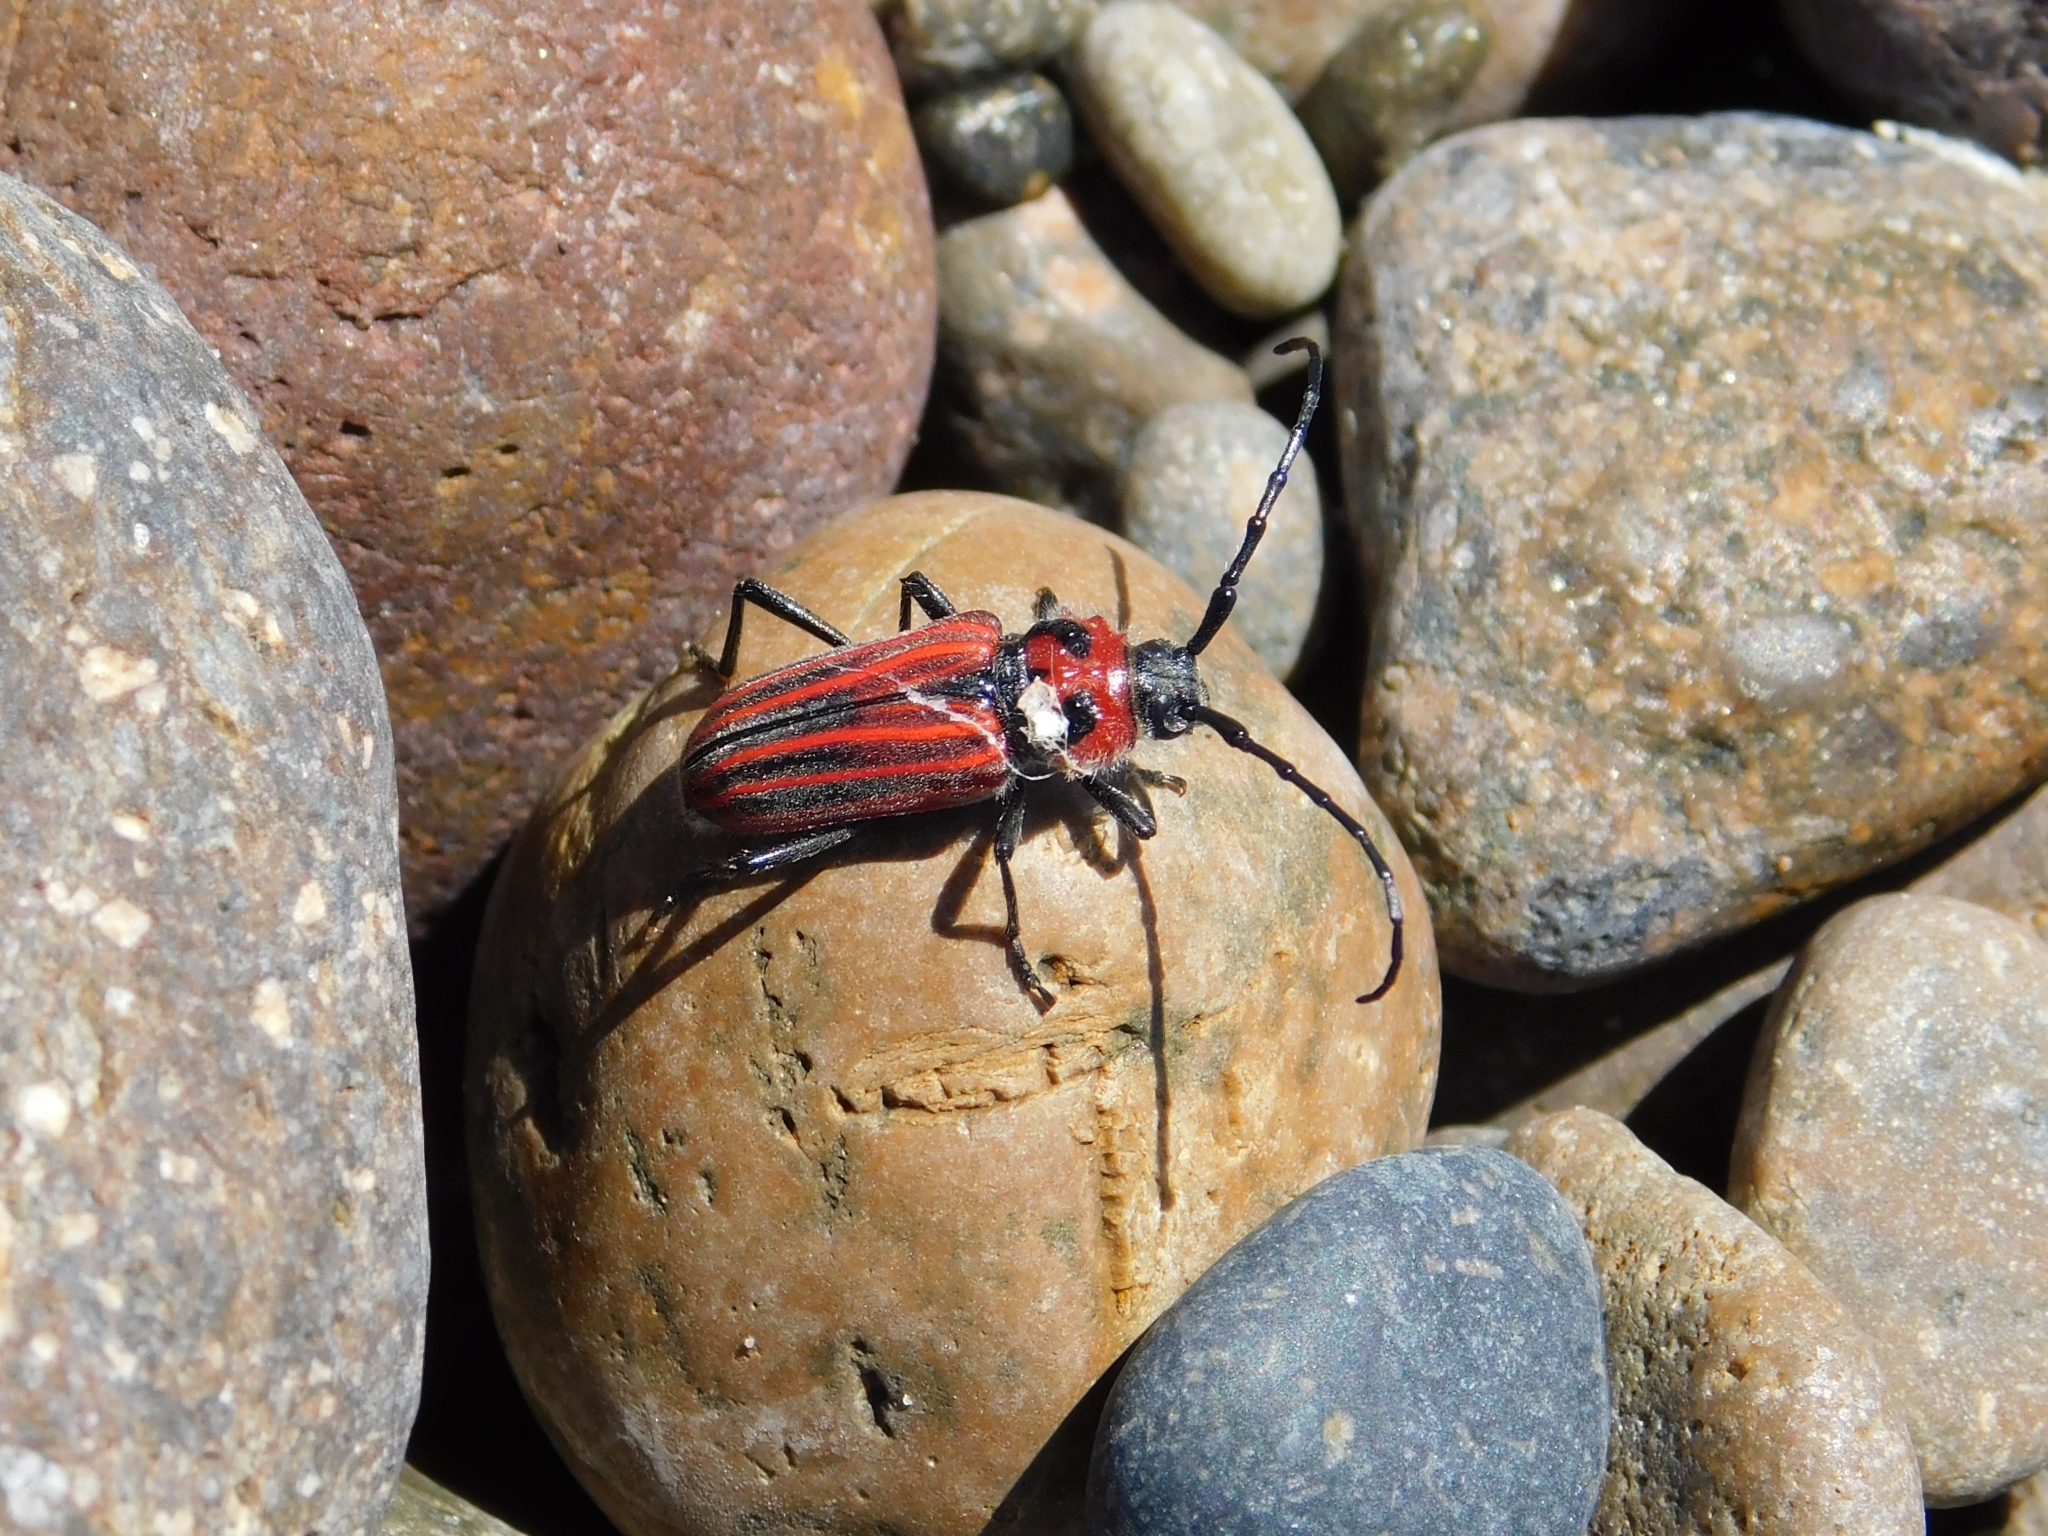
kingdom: Animalia
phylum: Arthropoda
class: Insecta
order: Coleoptera
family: Cerambycidae
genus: Eriocharis
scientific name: Eriocharis richardii
